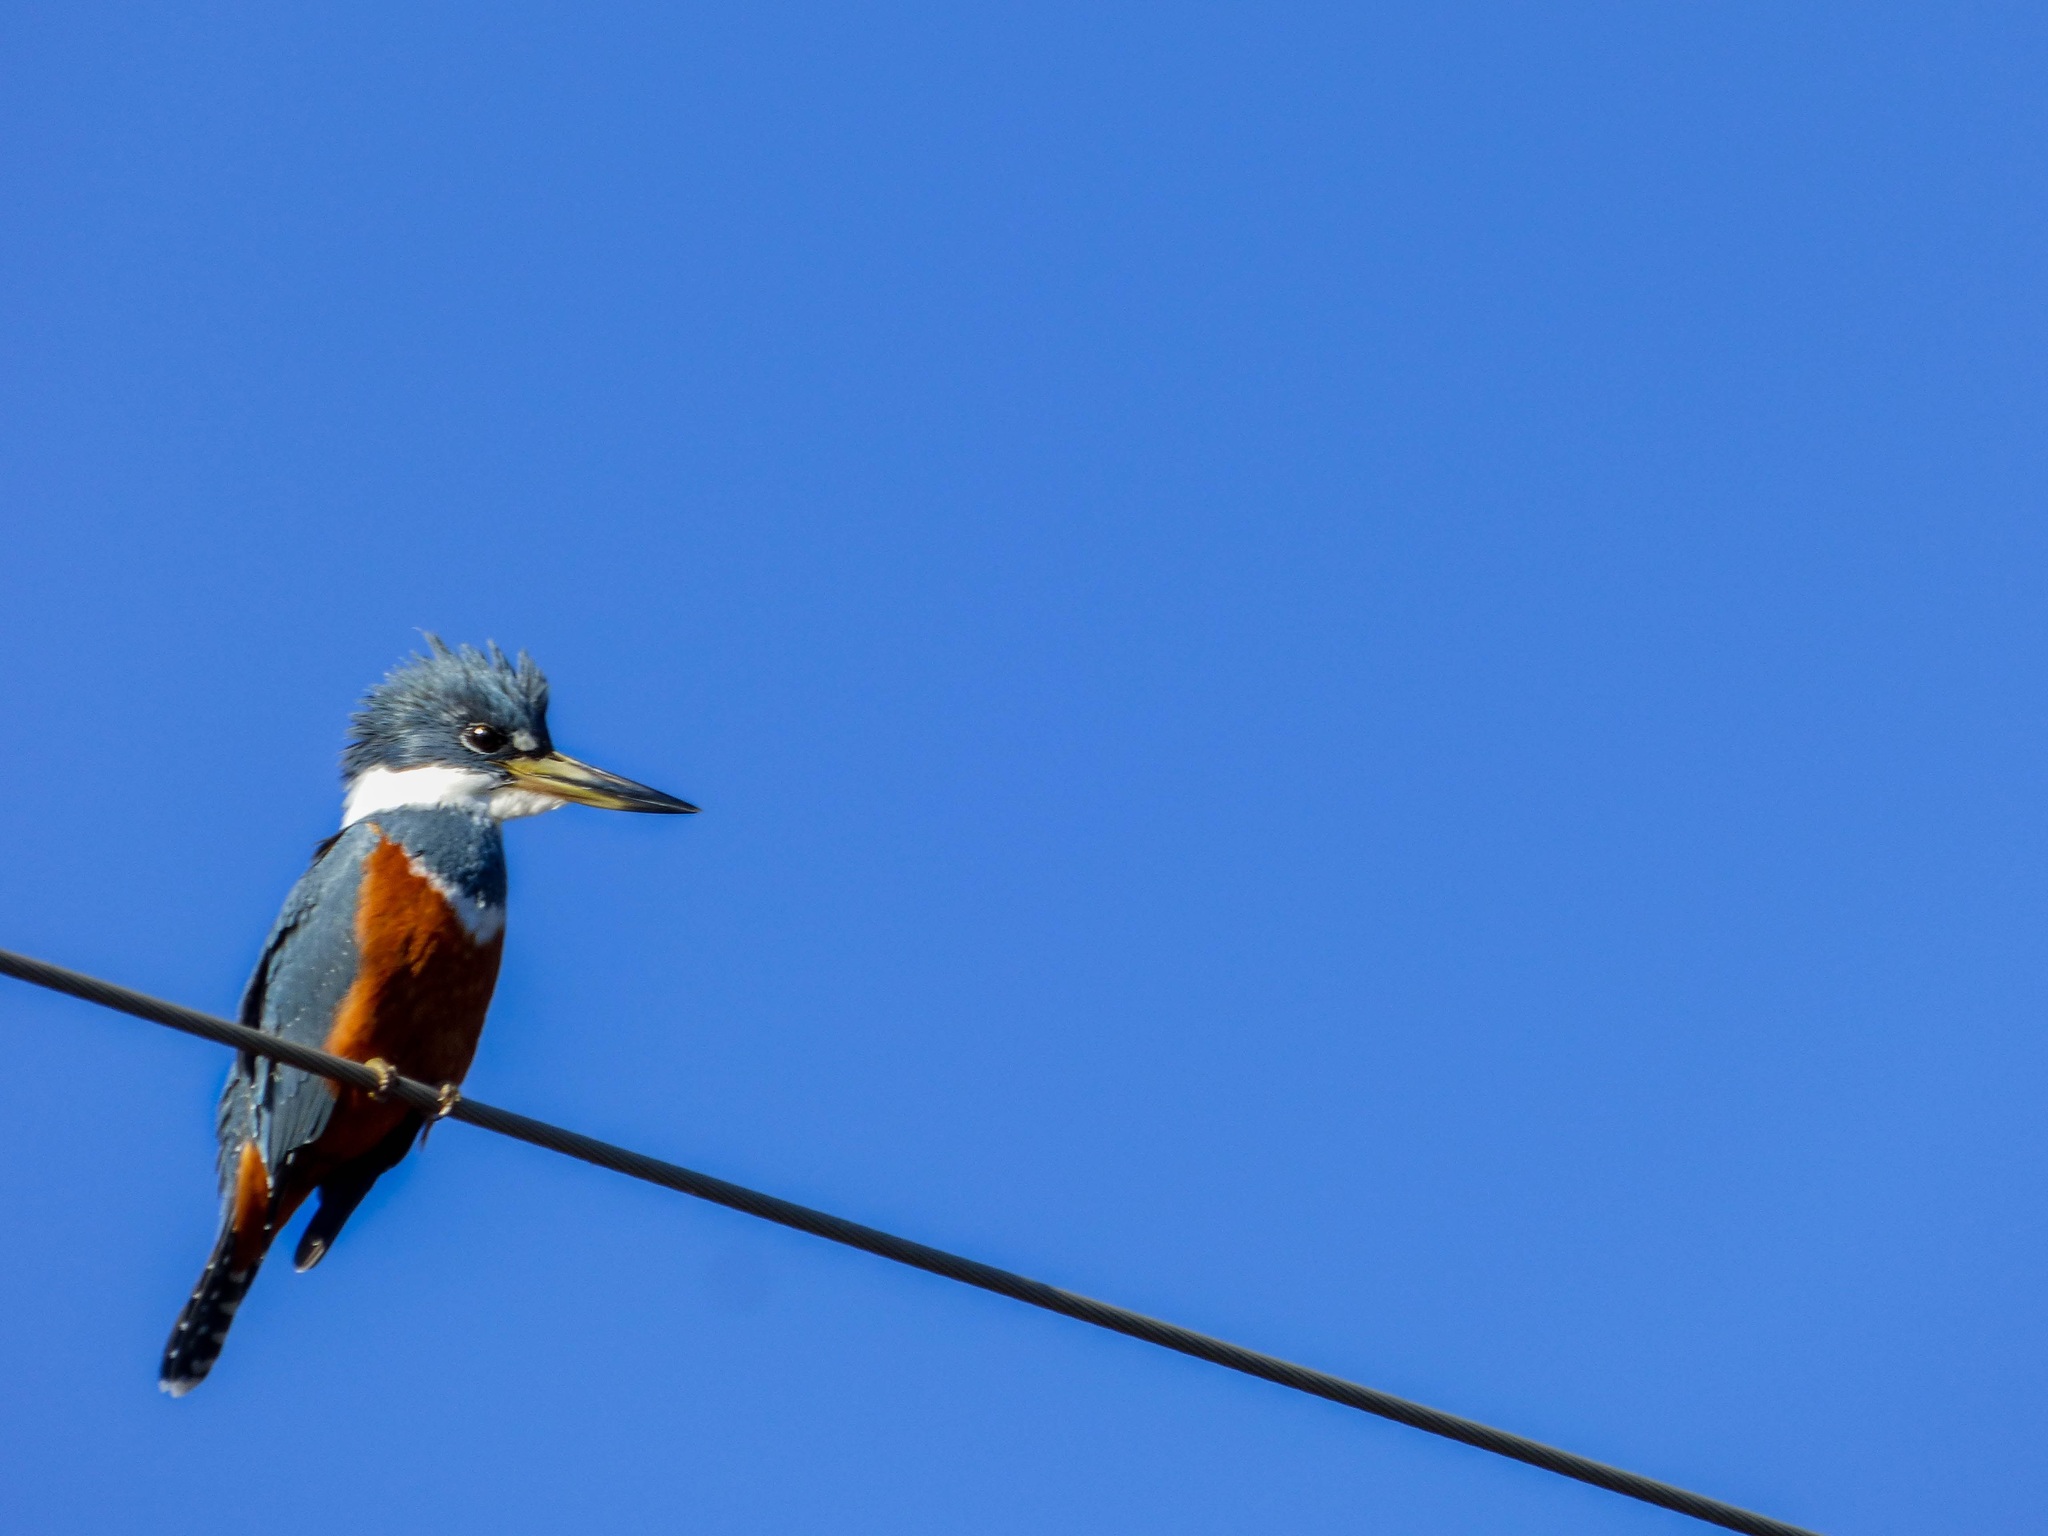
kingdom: Animalia
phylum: Chordata
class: Aves
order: Coraciiformes
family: Alcedinidae
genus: Megaceryle
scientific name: Megaceryle torquata
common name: Ringed kingfisher
